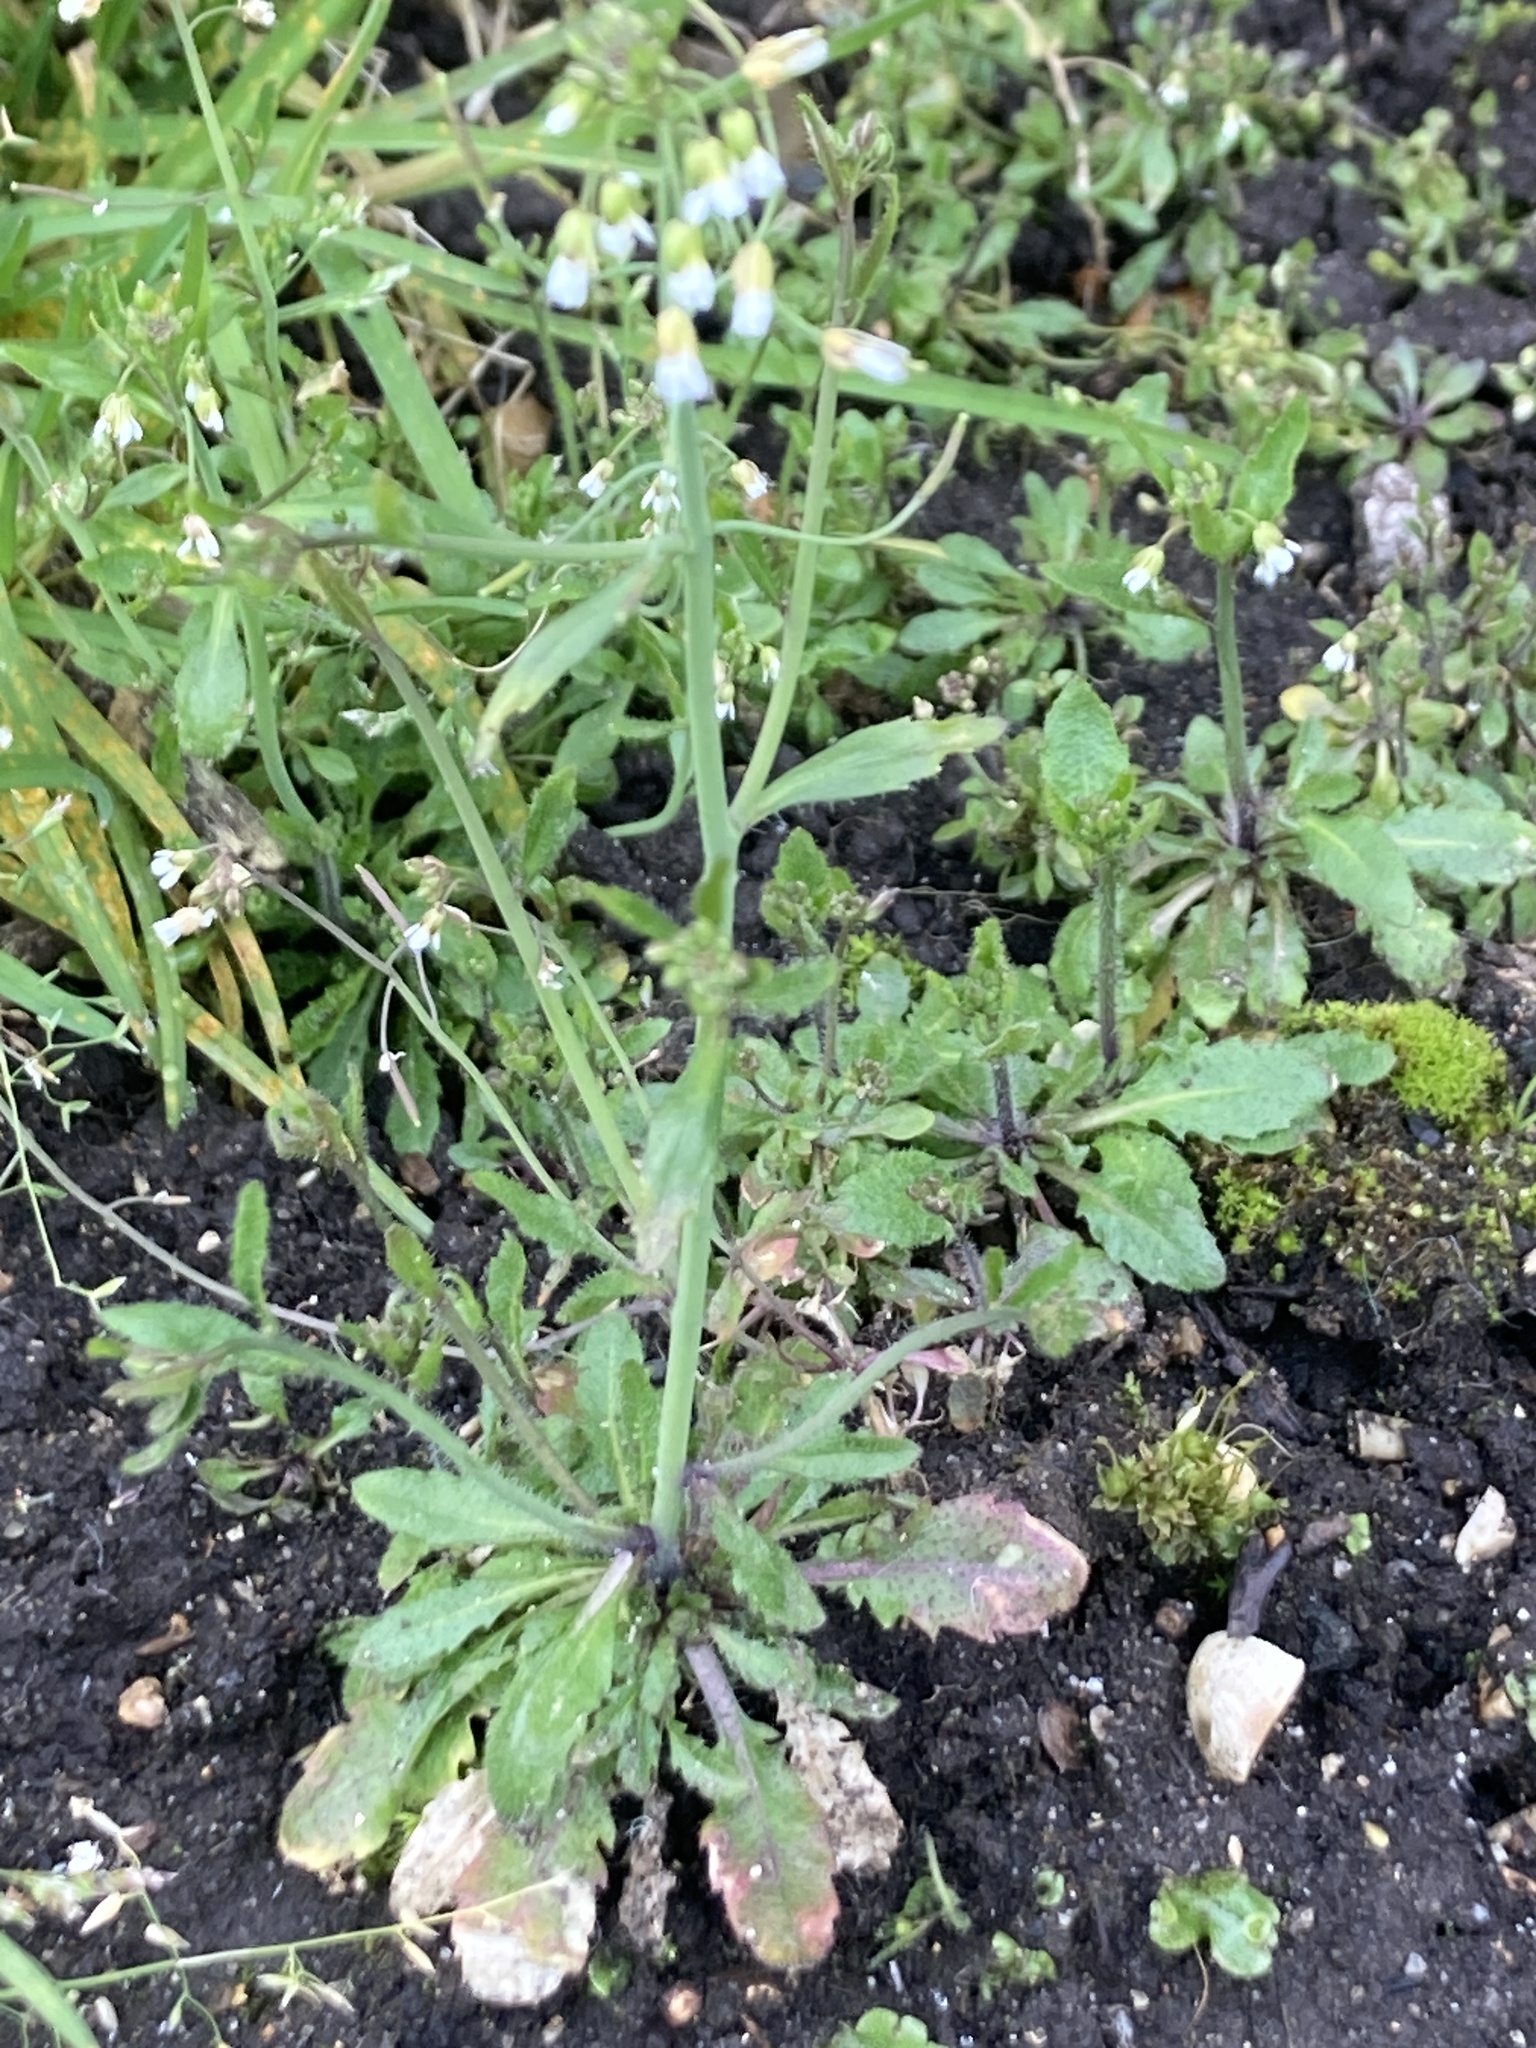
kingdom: Plantae
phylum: Tracheophyta
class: Magnoliopsida
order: Brassicales
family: Brassicaceae
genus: Arabidopsis
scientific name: Arabidopsis thaliana
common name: Thale cress
